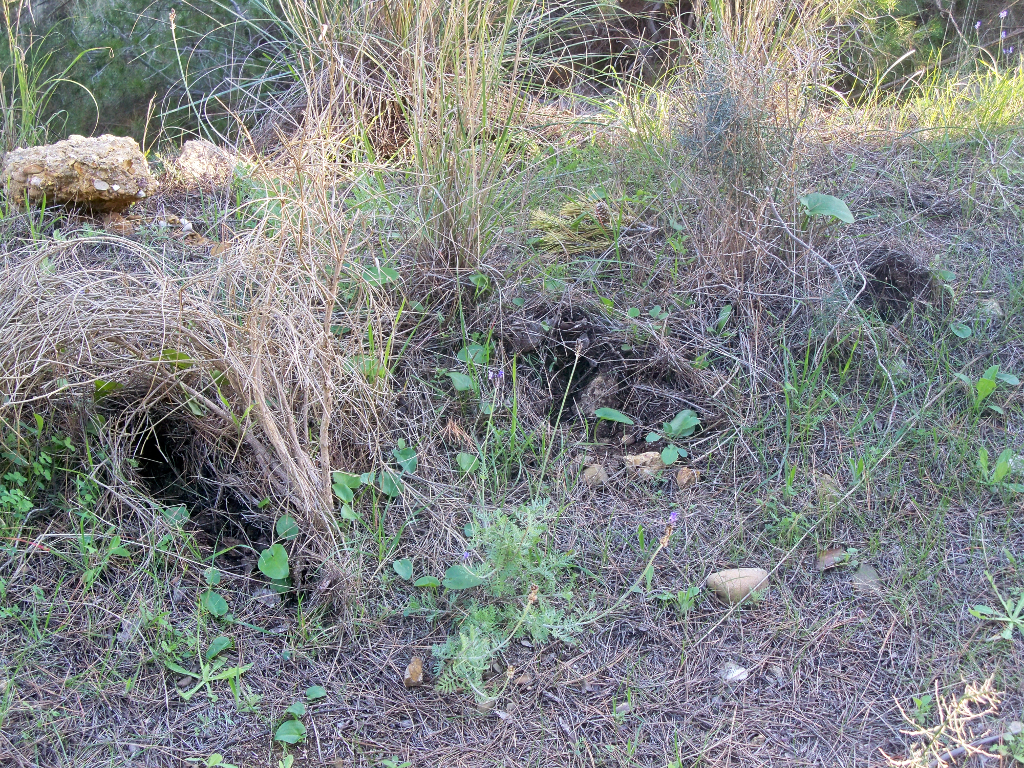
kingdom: Animalia
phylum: Chordata
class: Mammalia
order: Artiodactyla
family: Suidae
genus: Sus
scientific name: Sus scrofa
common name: Wild boar
